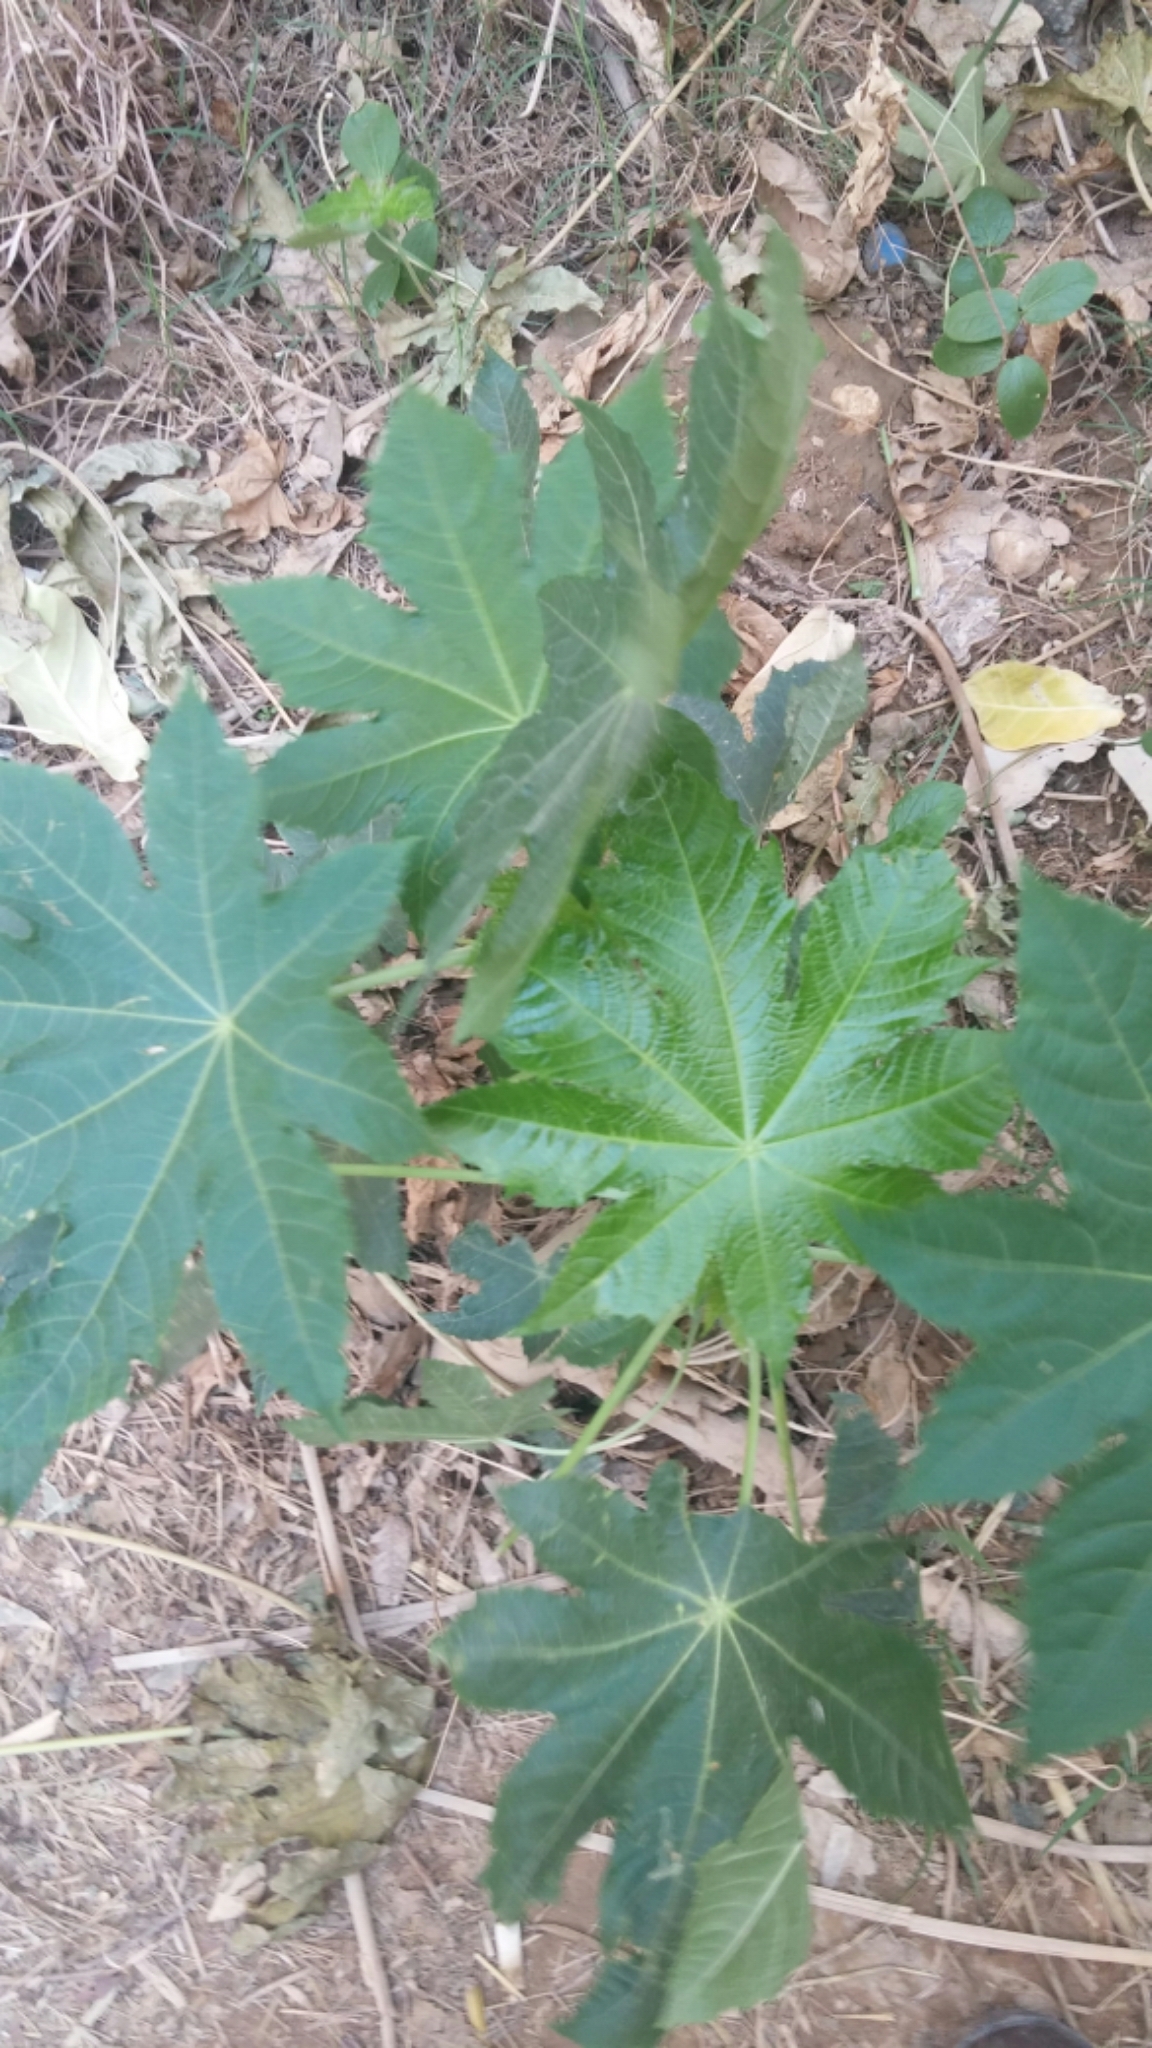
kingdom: Plantae
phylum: Tracheophyta
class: Magnoliopsida
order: Malpighiales
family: Euphorbiaceae
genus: Ricinus
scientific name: Ricinus communis
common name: Castor-oil-plant
